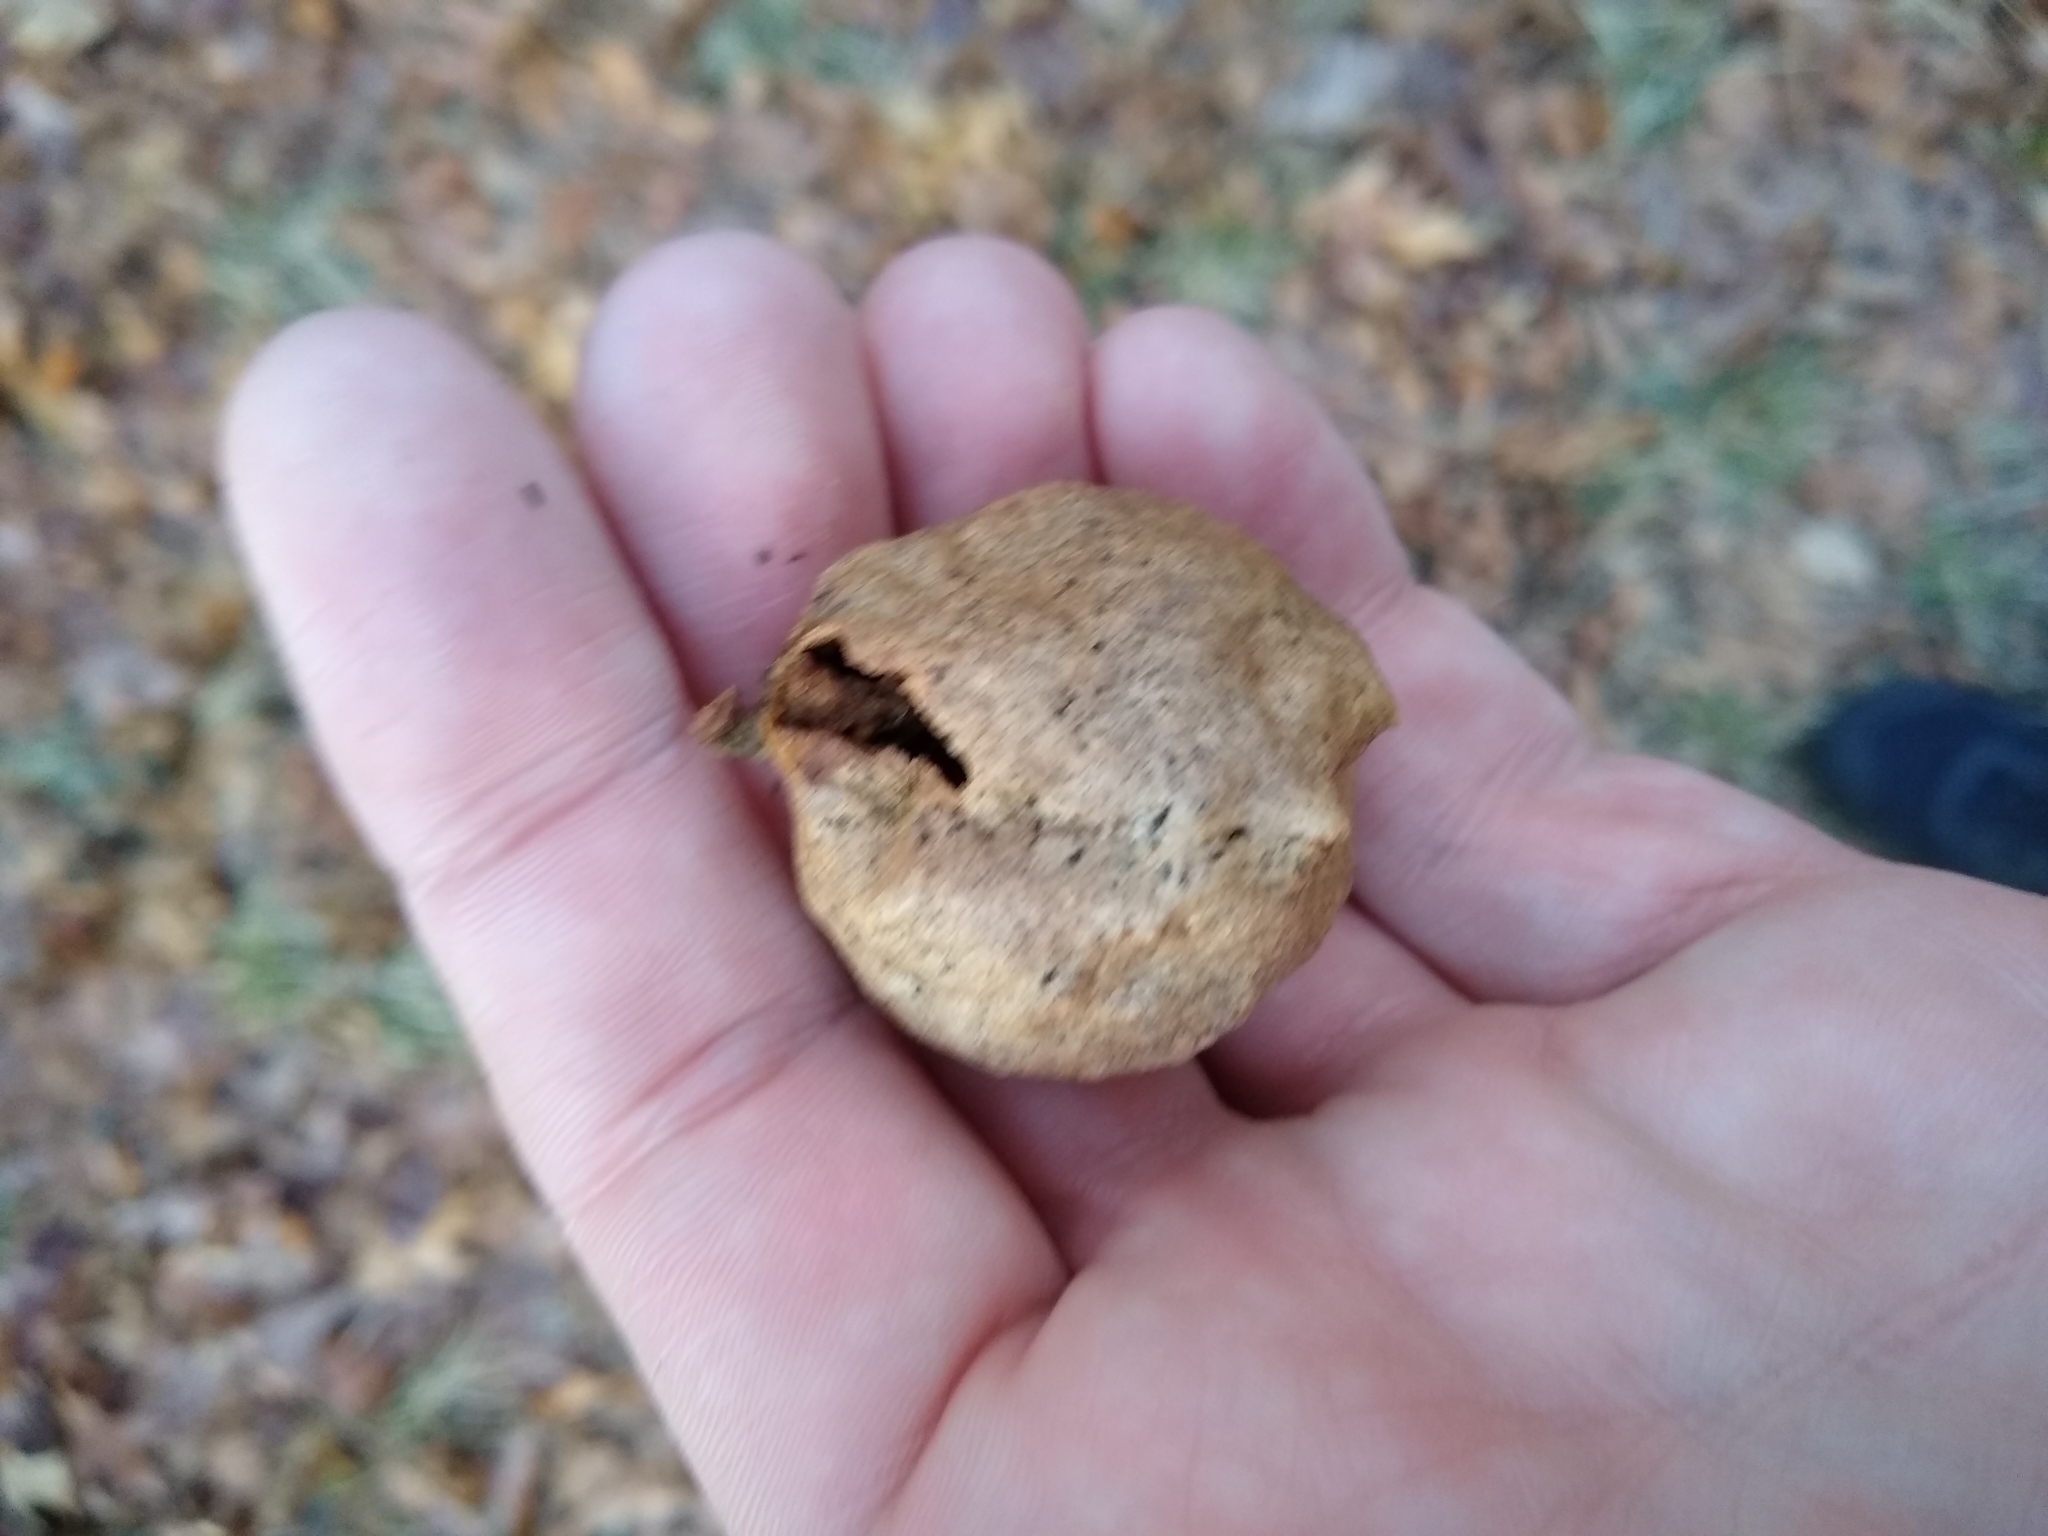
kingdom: Animalia
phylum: Arthropoda
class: Insecta
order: Hymenoptera
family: Cynipidae
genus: Amphibolips
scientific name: Amphibolips
